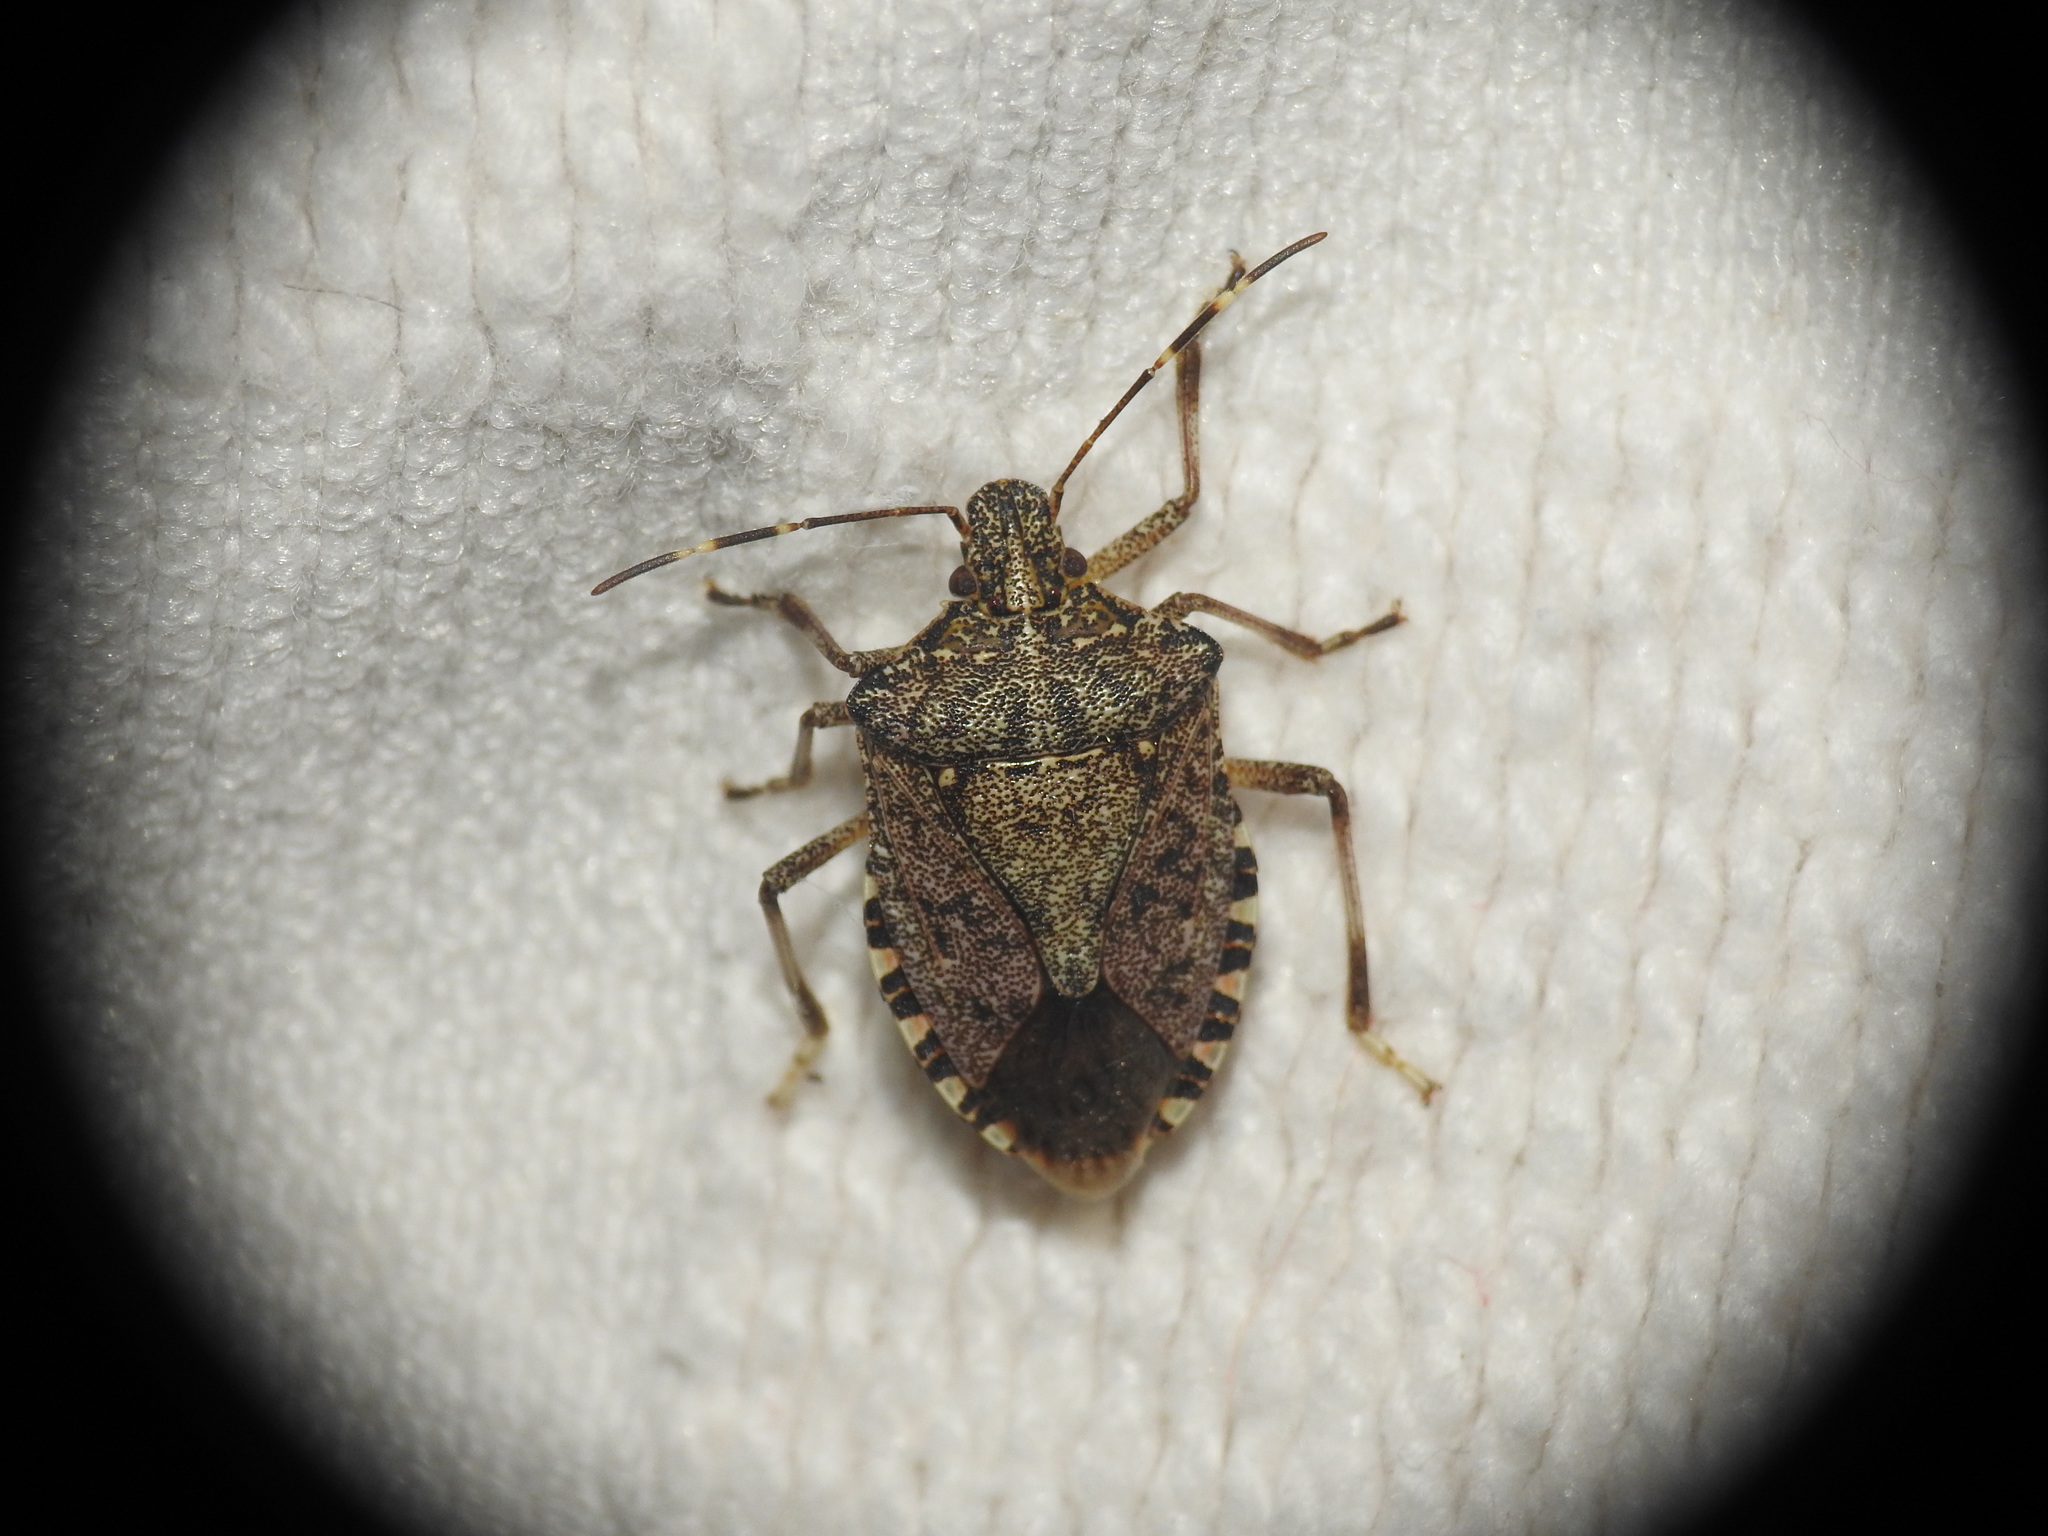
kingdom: Animalia
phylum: Arthropoda
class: Insecta
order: Hemiptera
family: Pentatomidae
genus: Halyomorpha
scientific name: Halyomorpha halys
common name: Brown marmorated stink bug
